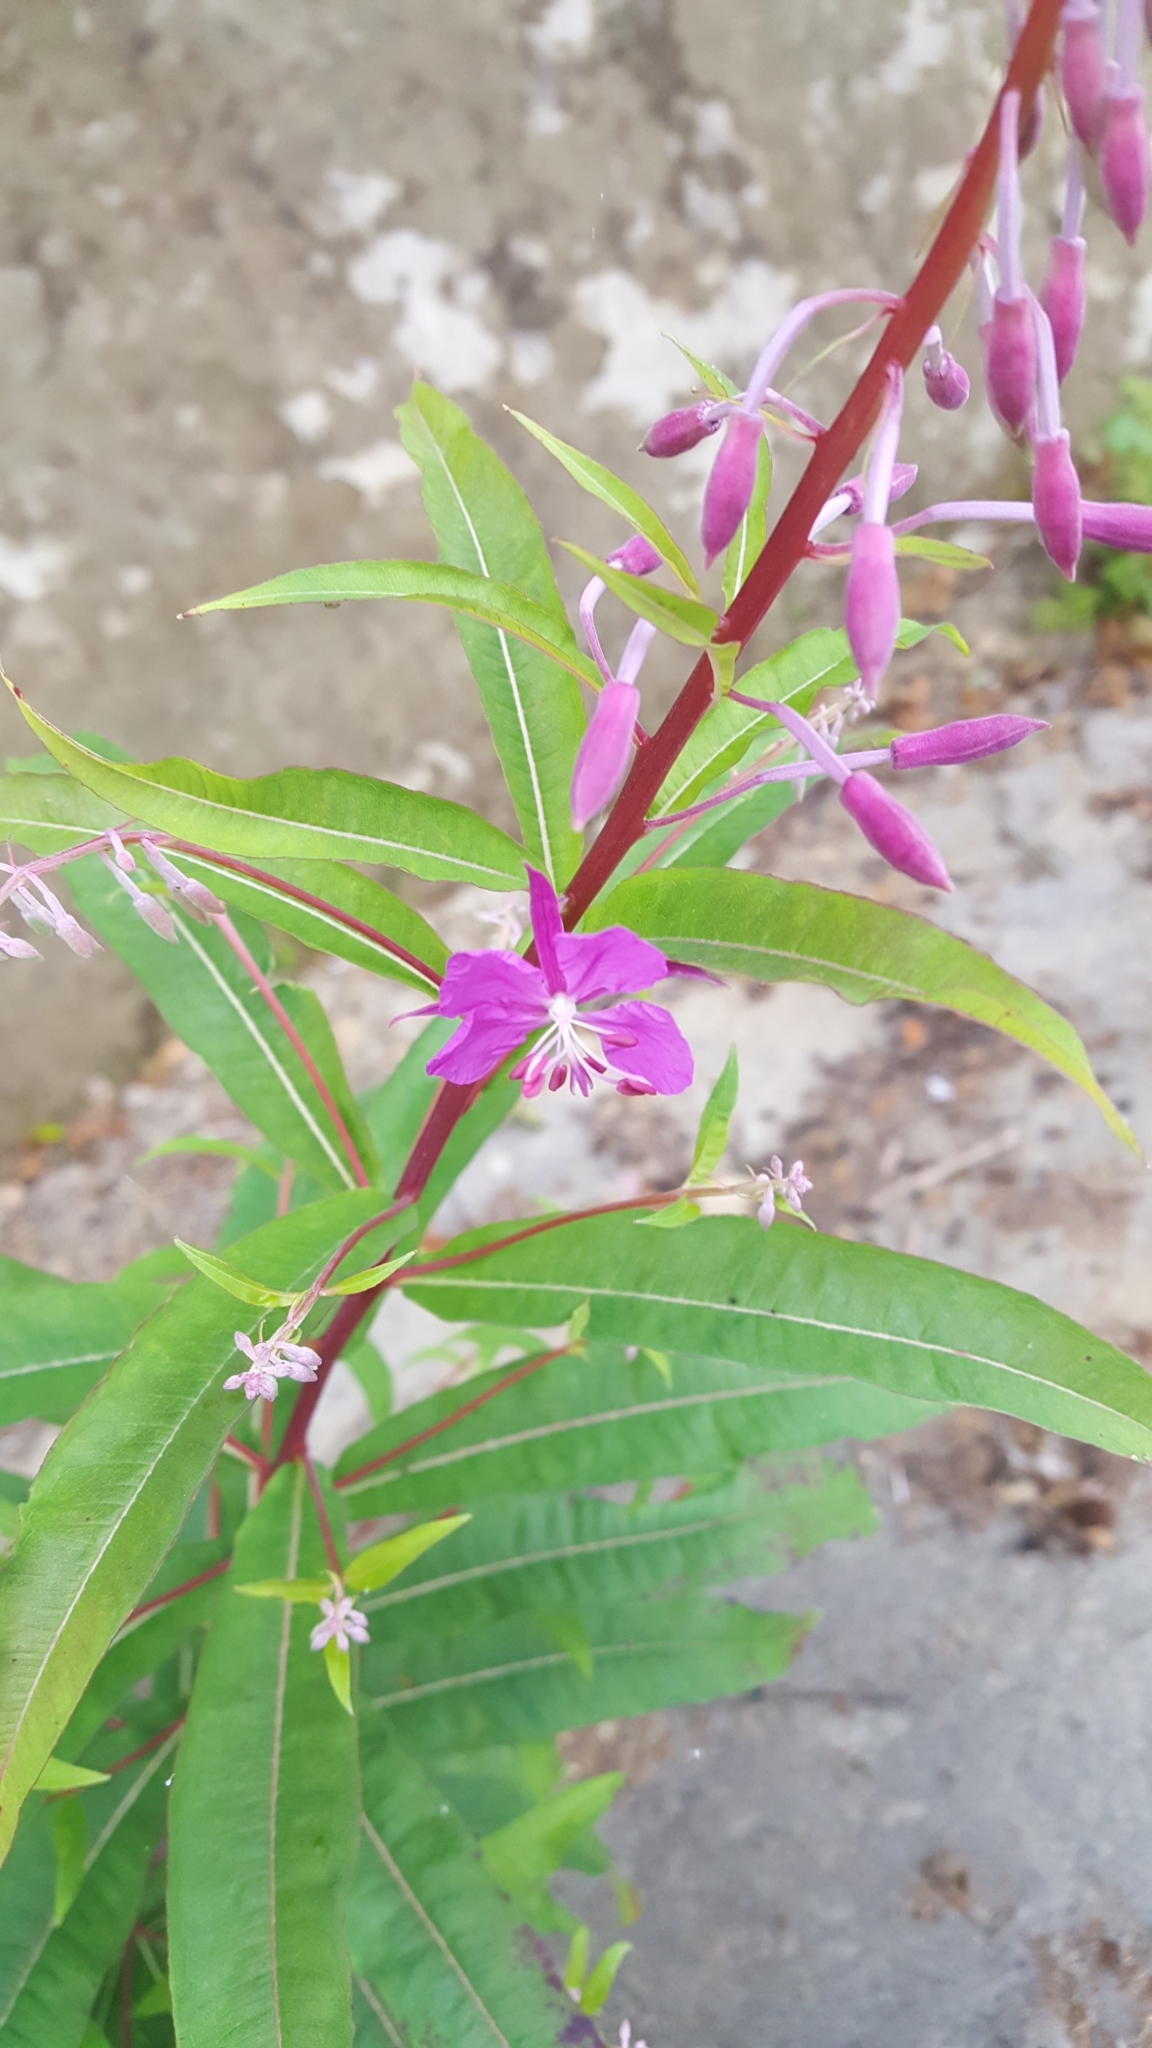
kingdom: Plantae
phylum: Tracheophyta
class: Magnoliopsida
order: Myrtales
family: Onagraceae
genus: Chamaenerion
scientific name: Chamaenerion angustifolium
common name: Fireweed
